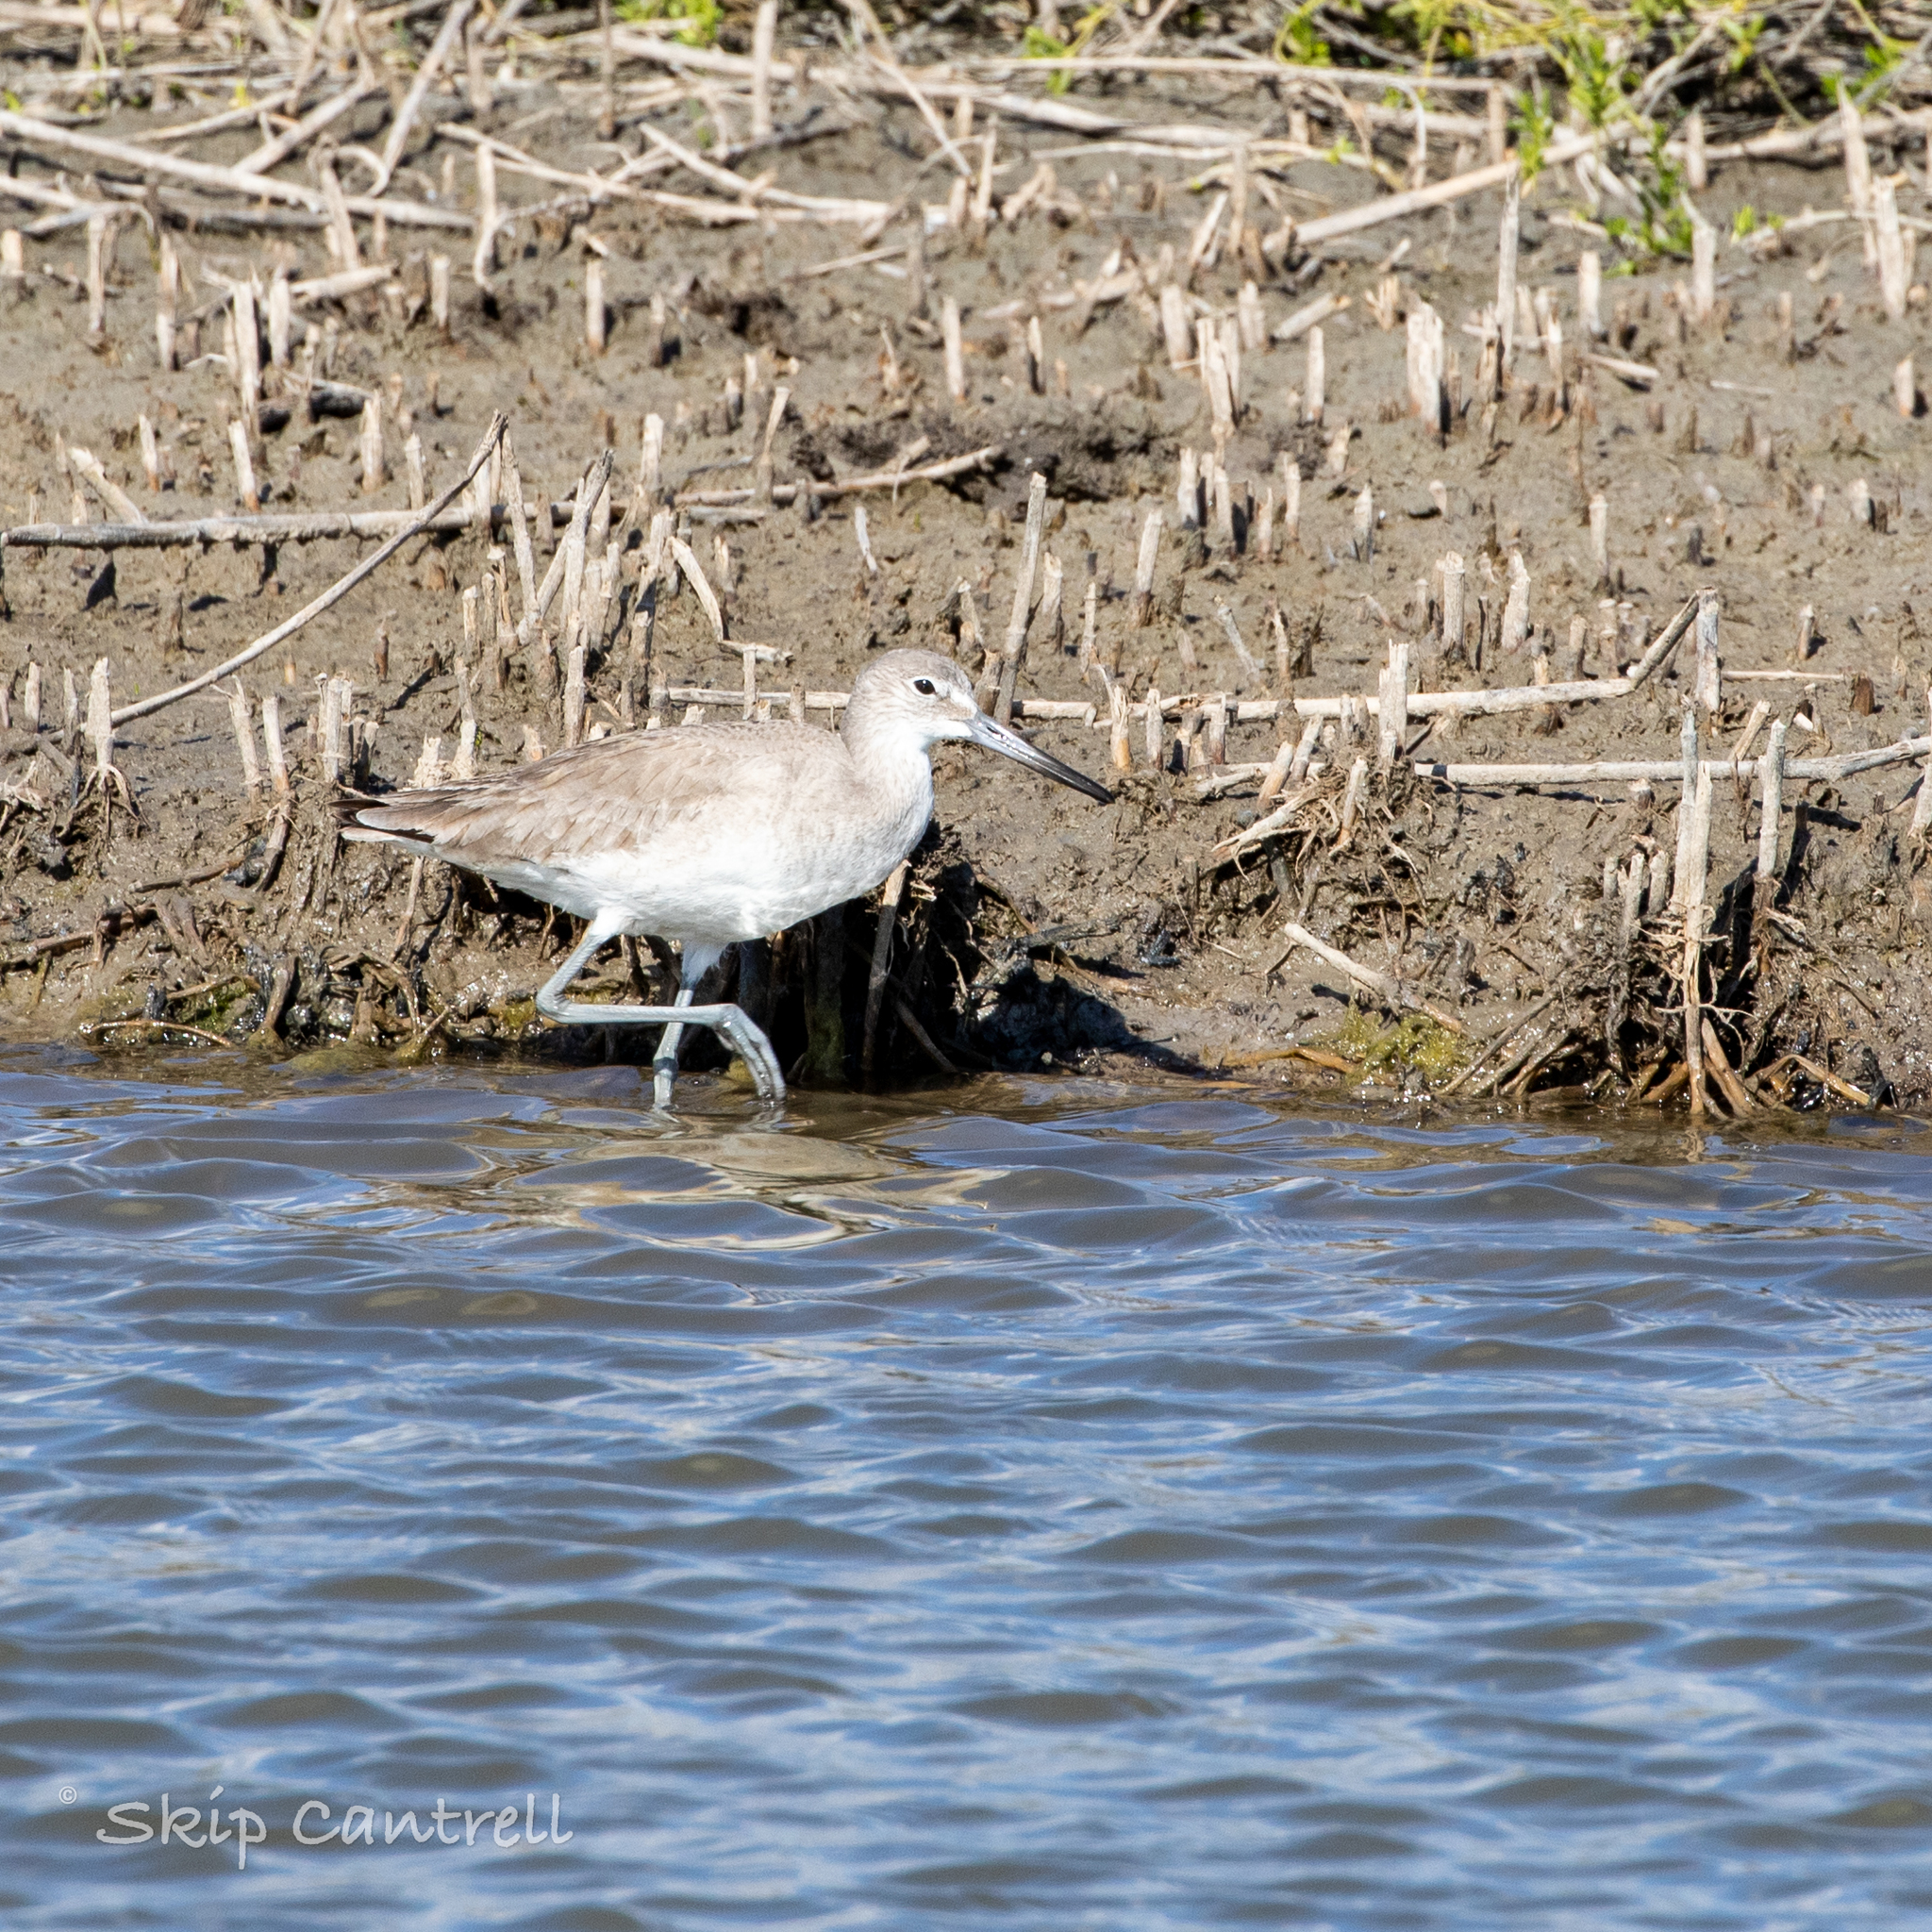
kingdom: Animalia
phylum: Chordata
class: Aves
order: Charadriiformes
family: Scolopacidae
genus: Tringa
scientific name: Tringa semipalmata
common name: Willet
